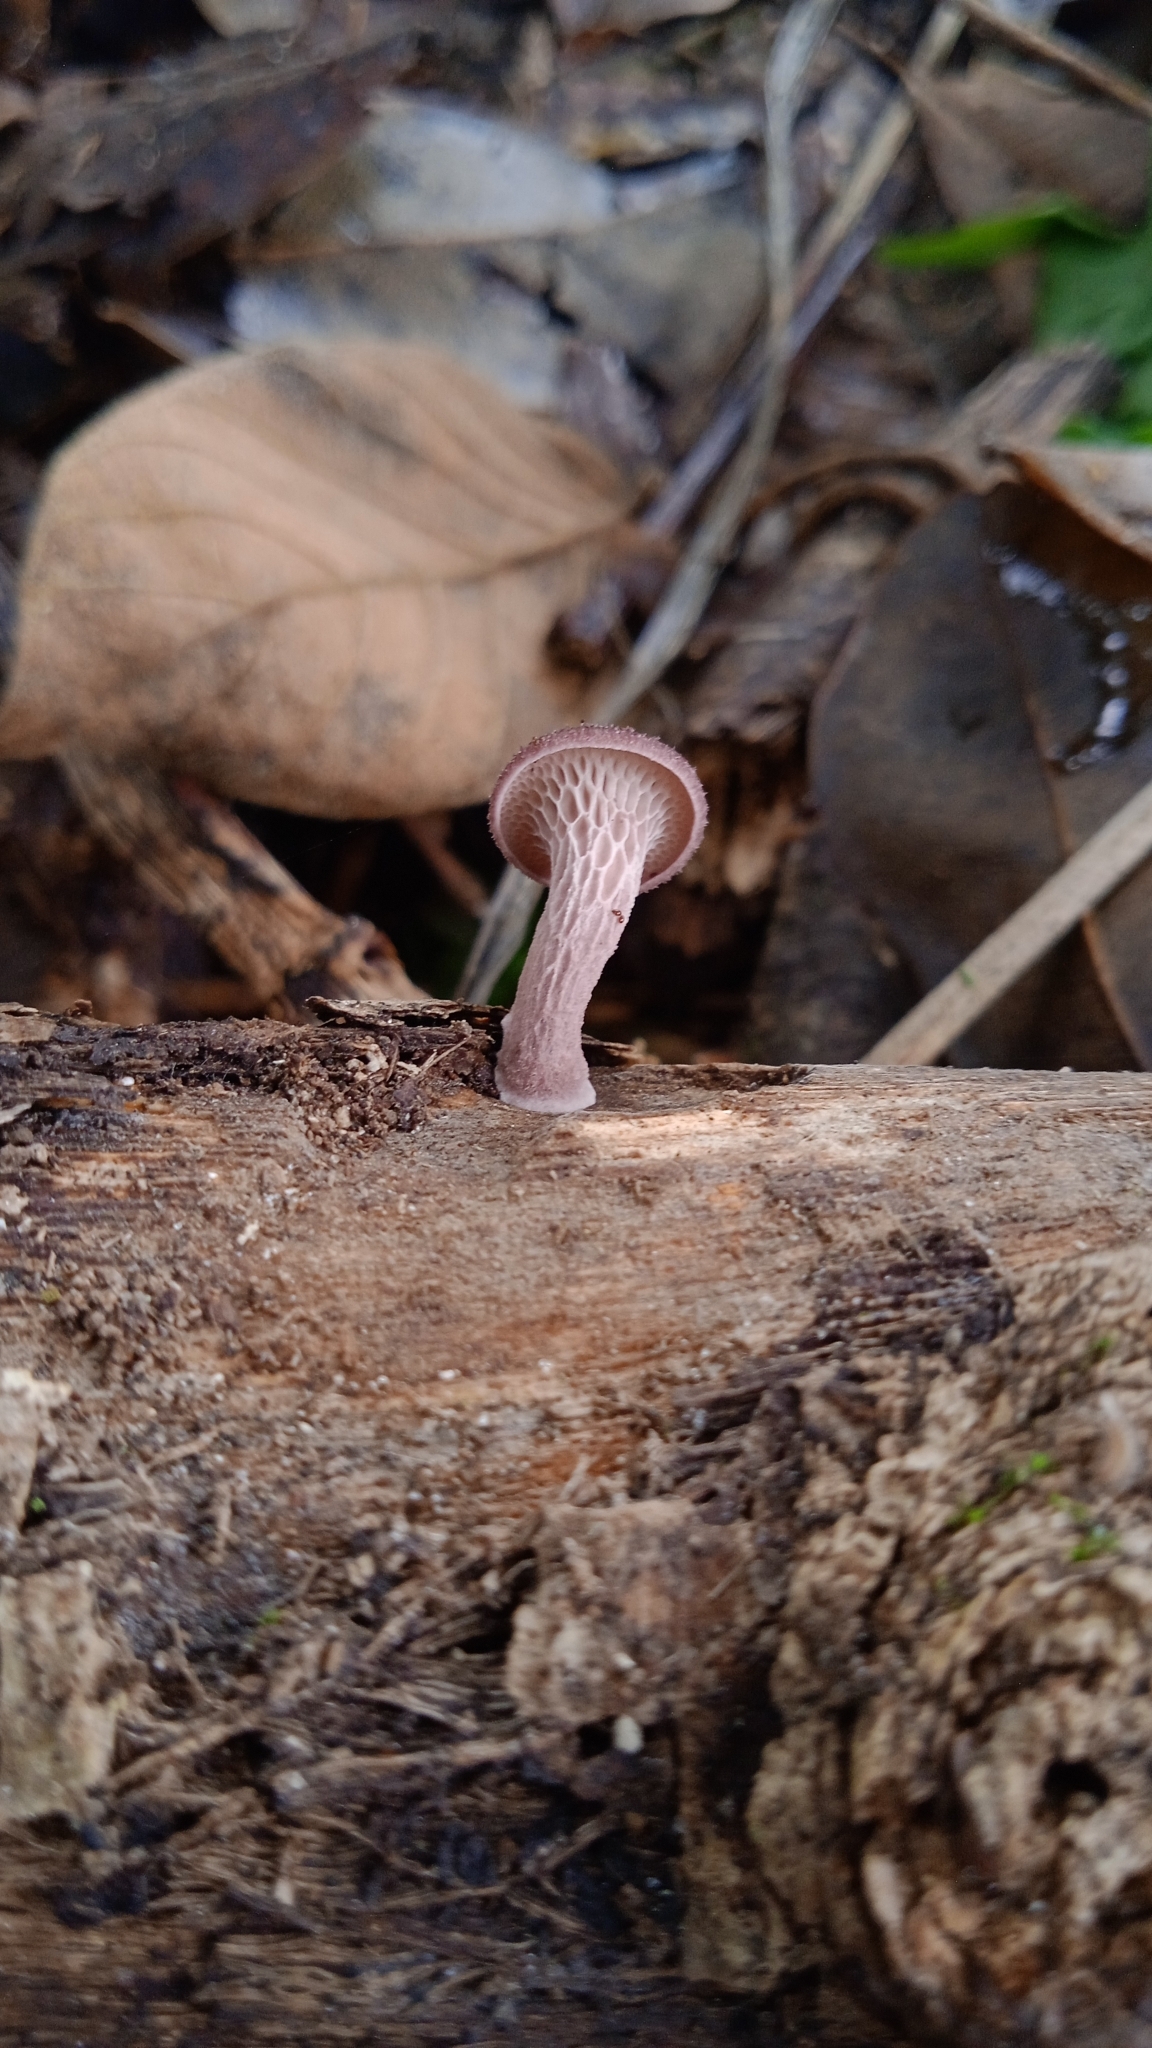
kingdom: Fungi
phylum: Basidiomycota
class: Agaricomycetes
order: Polyporales
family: Polyporaceae
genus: Neofavolus
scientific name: Neofavolus subpurpurascens
